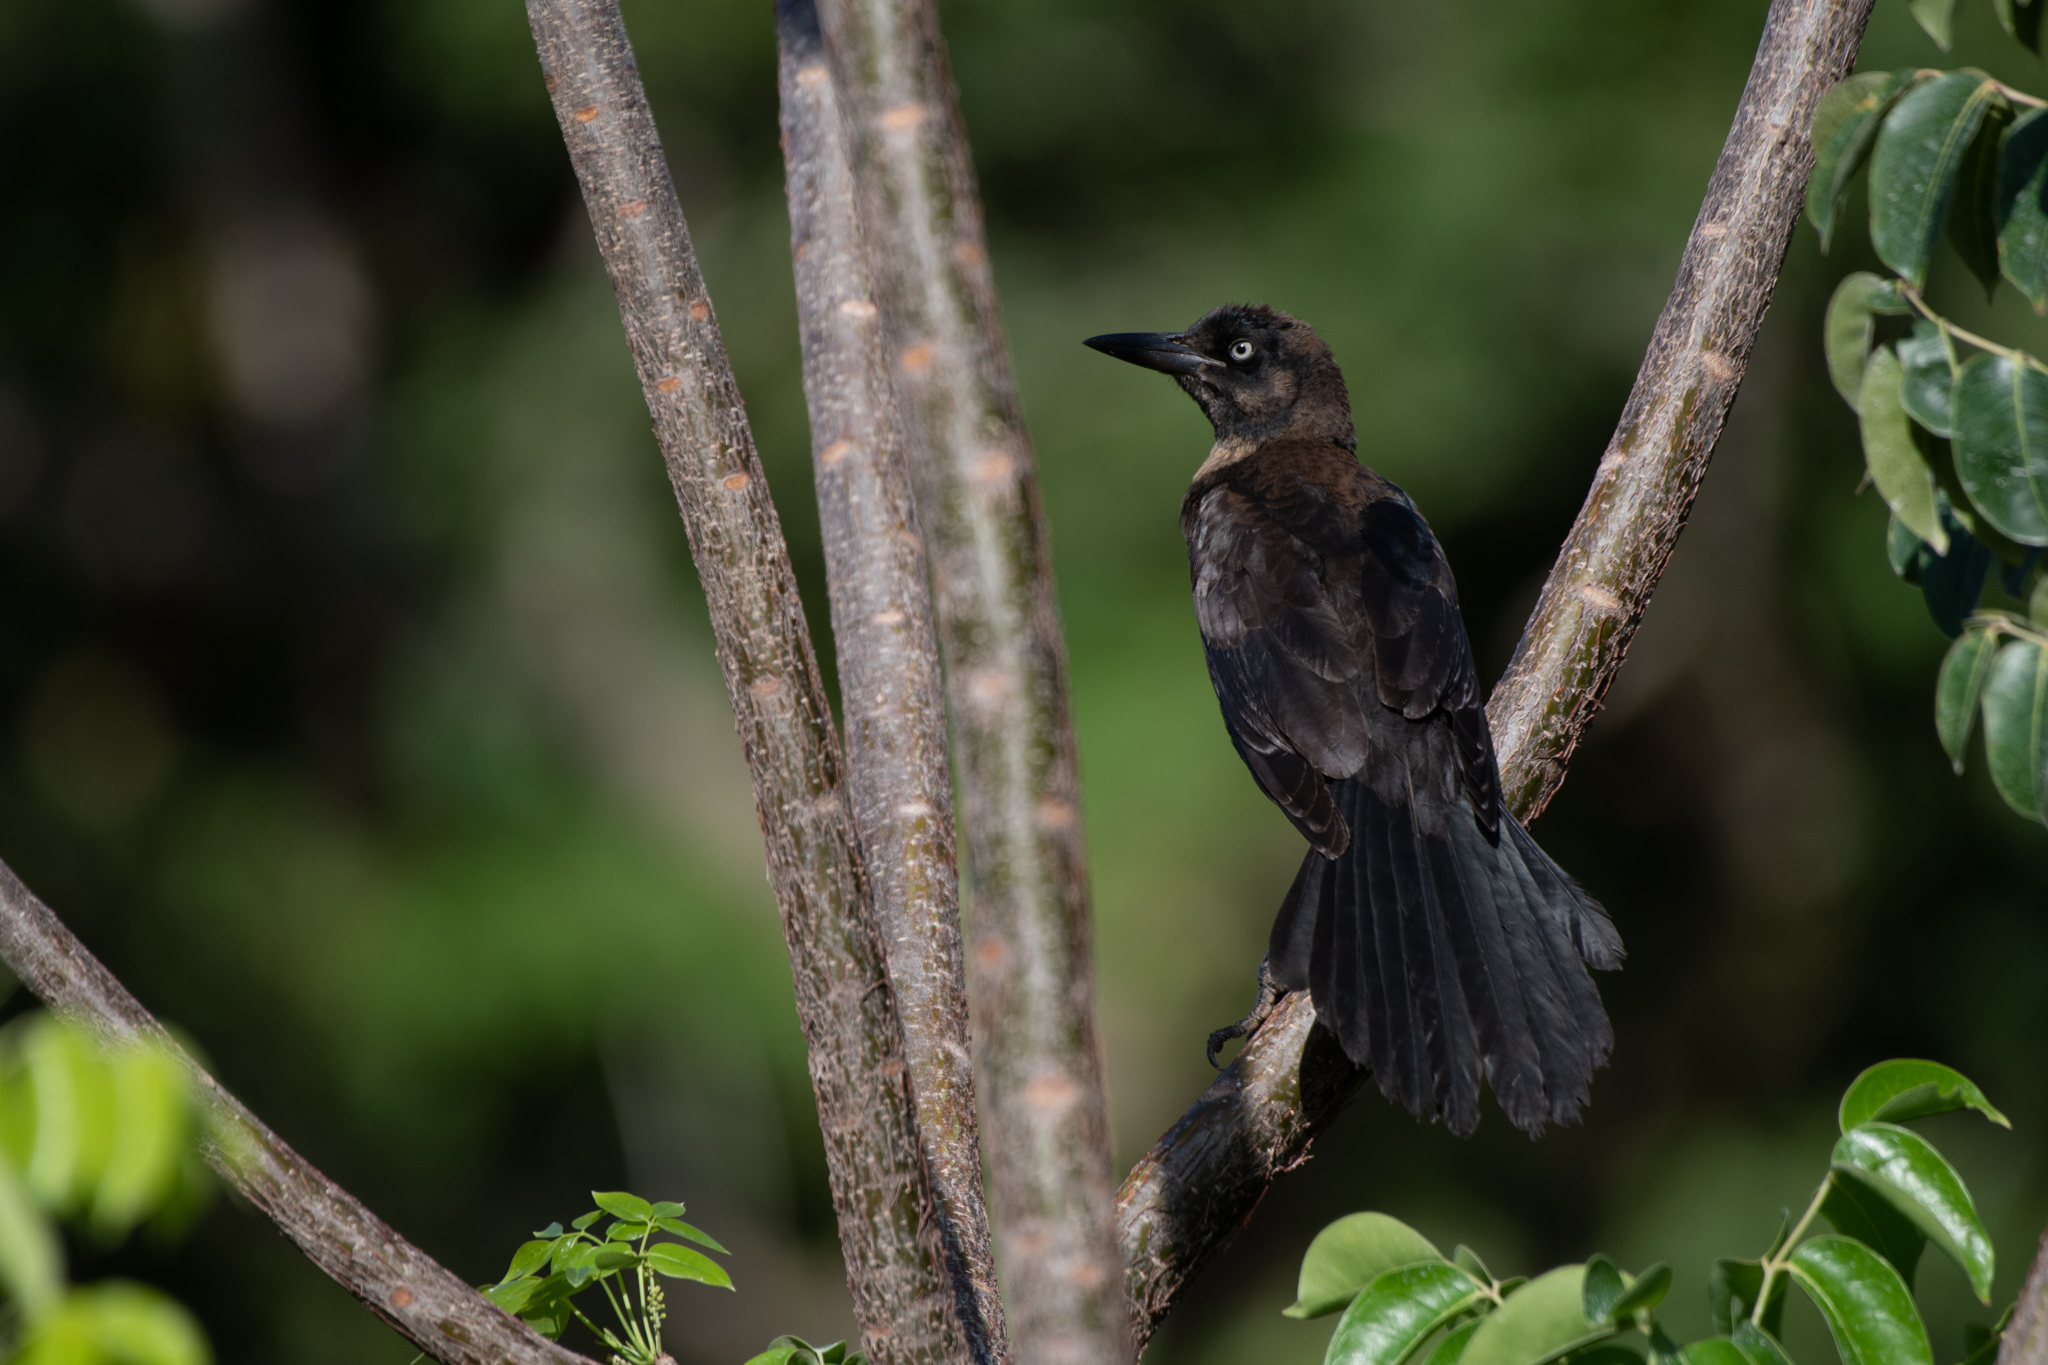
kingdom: Animalia
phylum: Chordata
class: Aves
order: Passeriformes
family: Icteridae
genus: Quiscalus
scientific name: Quiscalus mexicanus
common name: Great-tailed grackle
